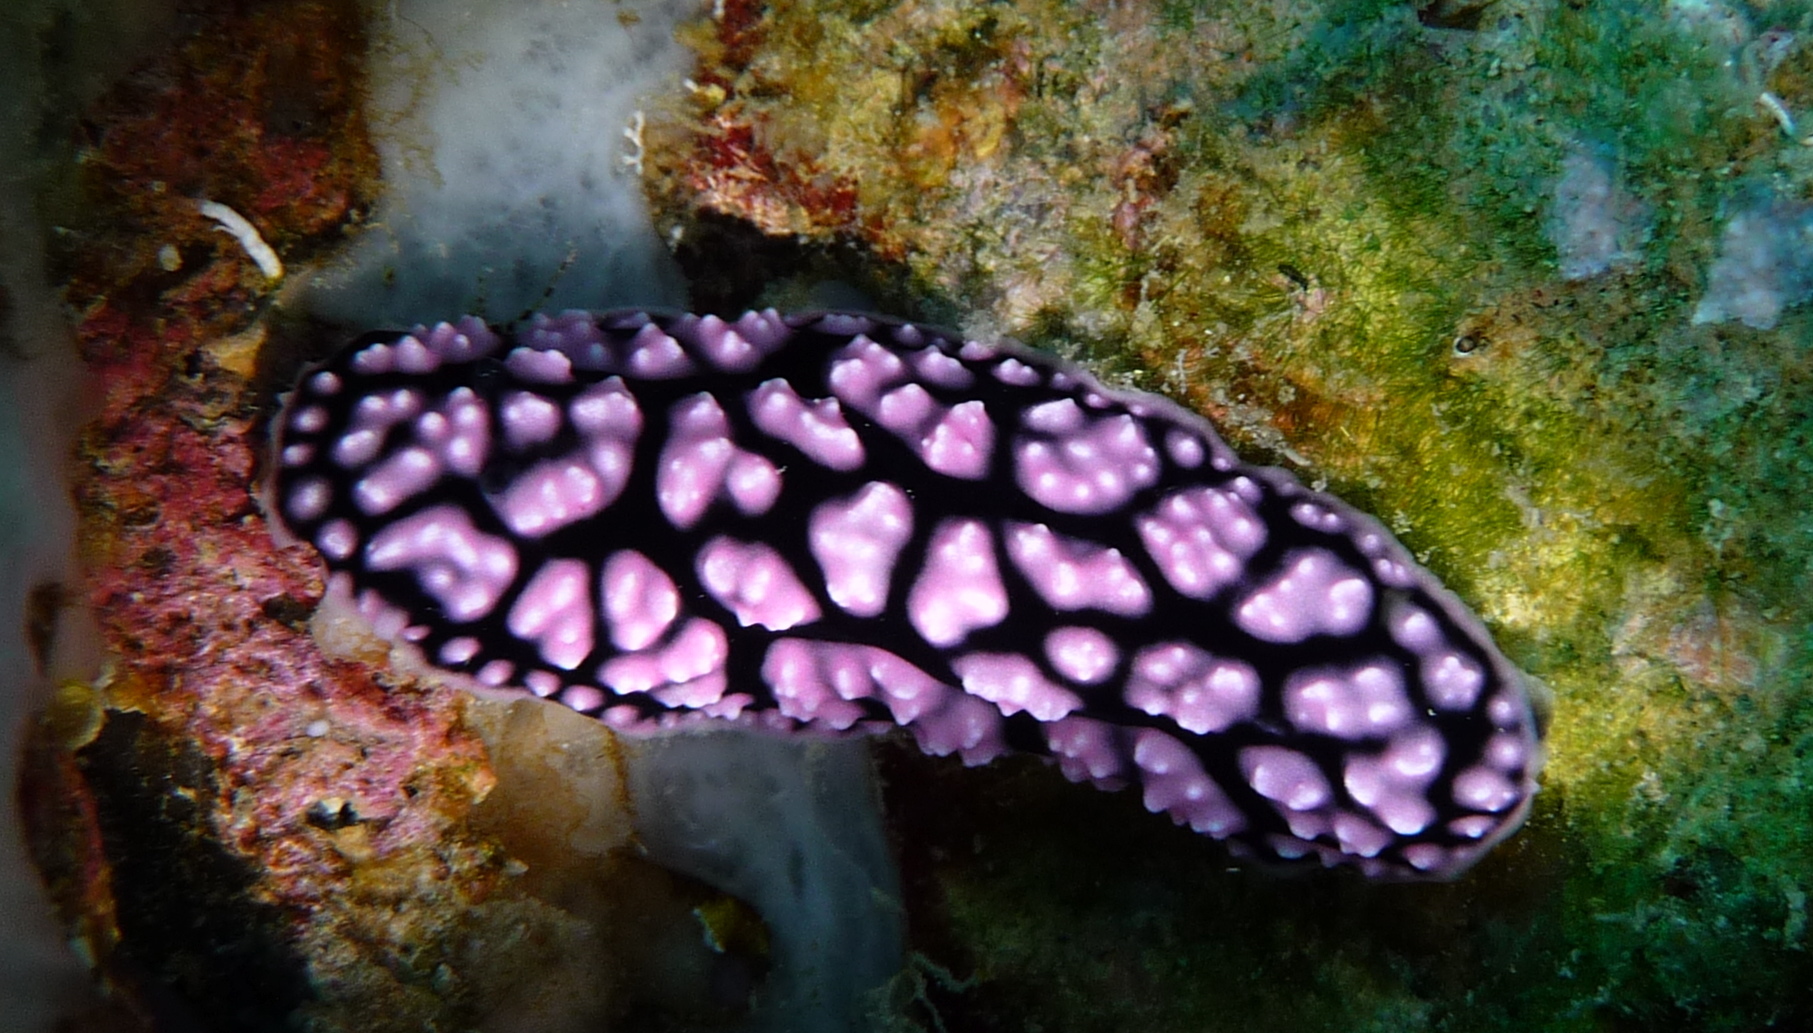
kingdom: Animalia
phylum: Mollusca
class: Gastropoda
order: Nudibranchia
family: Phyllidiidae
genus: Phyllidiella
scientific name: Phyllidiella pustulosa
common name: Pustular phyllidia
